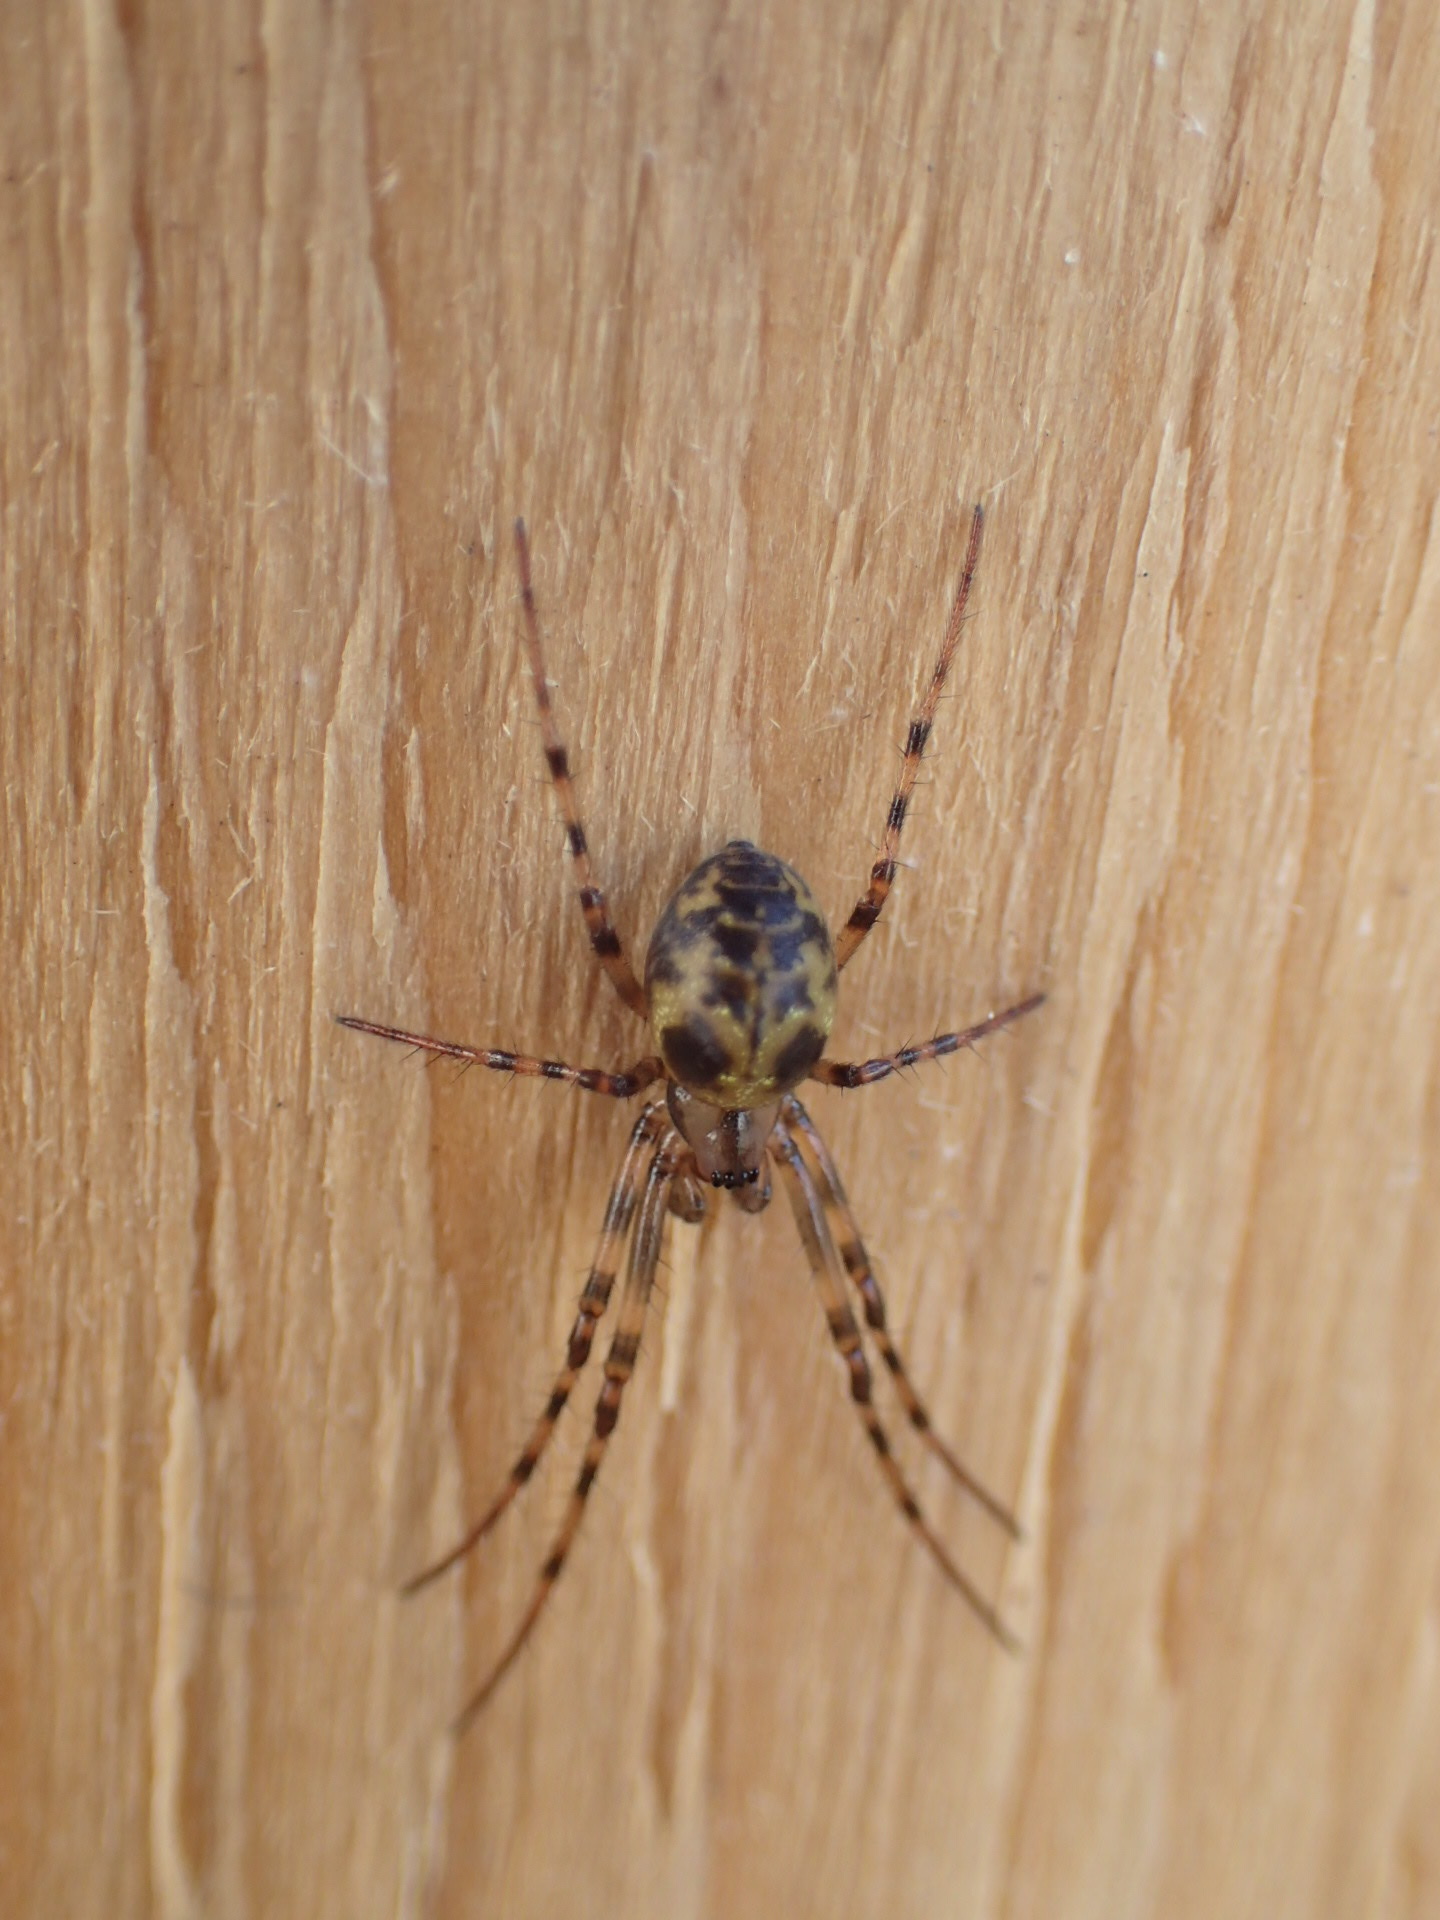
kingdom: Animalia
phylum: Arthropoda
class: Arachnida
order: Araneae
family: Tetragnathidae
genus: Meta
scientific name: Meta ovalis
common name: Eastern cave long-jawed spider
